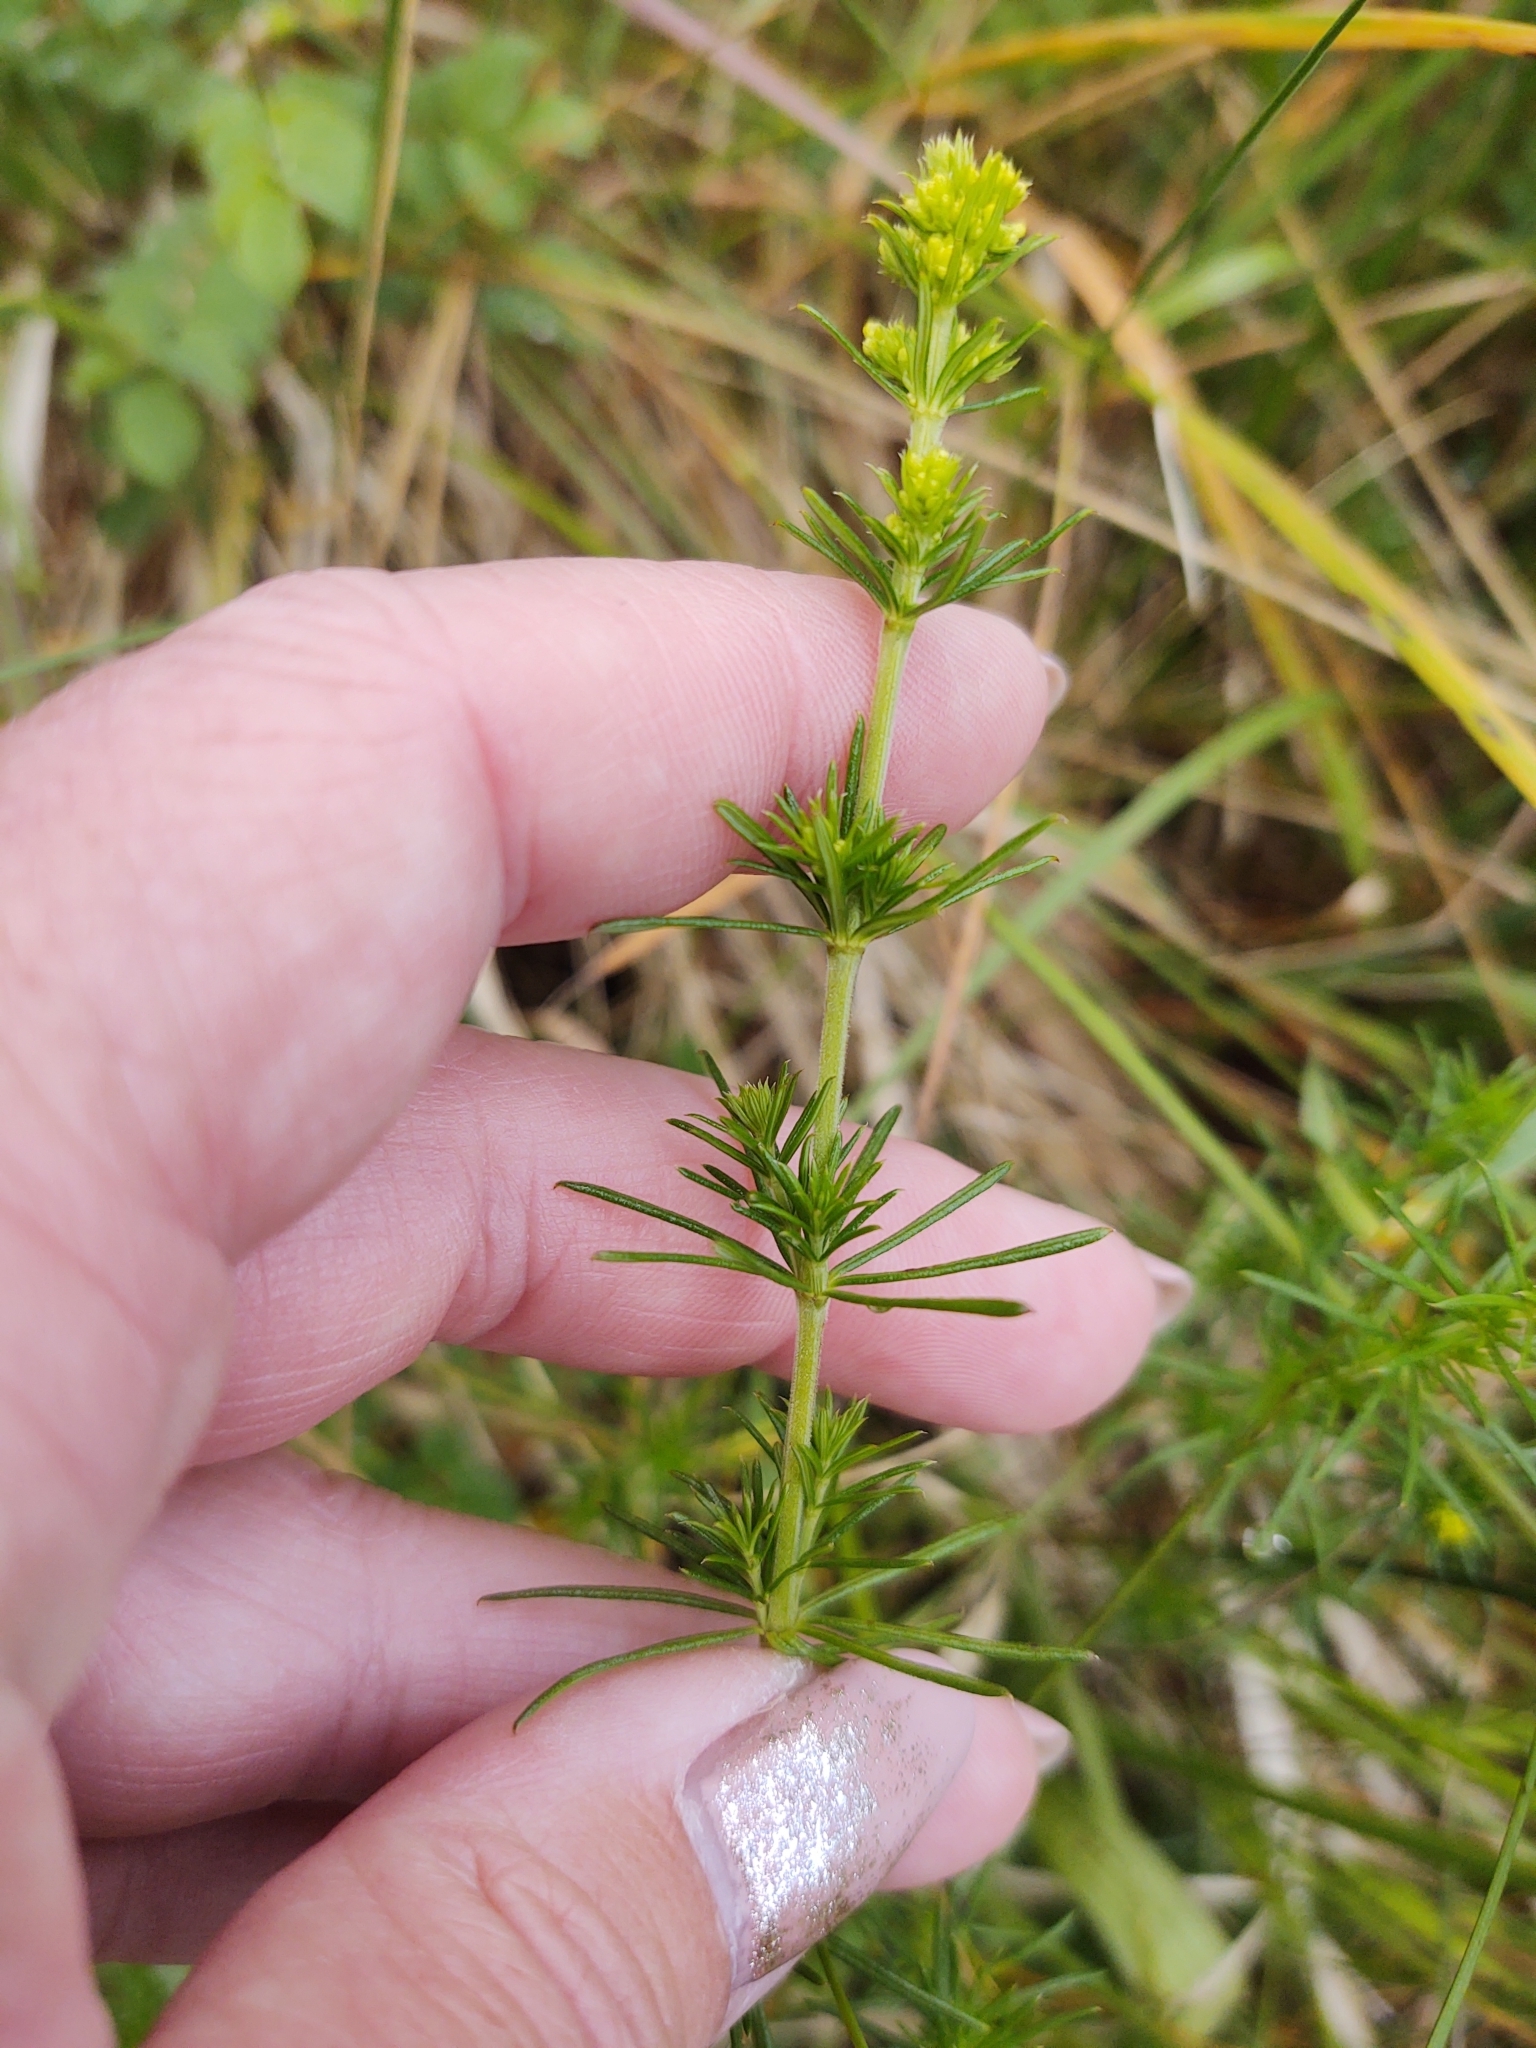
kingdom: Plantae
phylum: Tracheophyta
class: Magnoliopsida
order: Gentianales
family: Rubiaceae
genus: Galium
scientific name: Galium verum
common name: Lady's bedstraw
